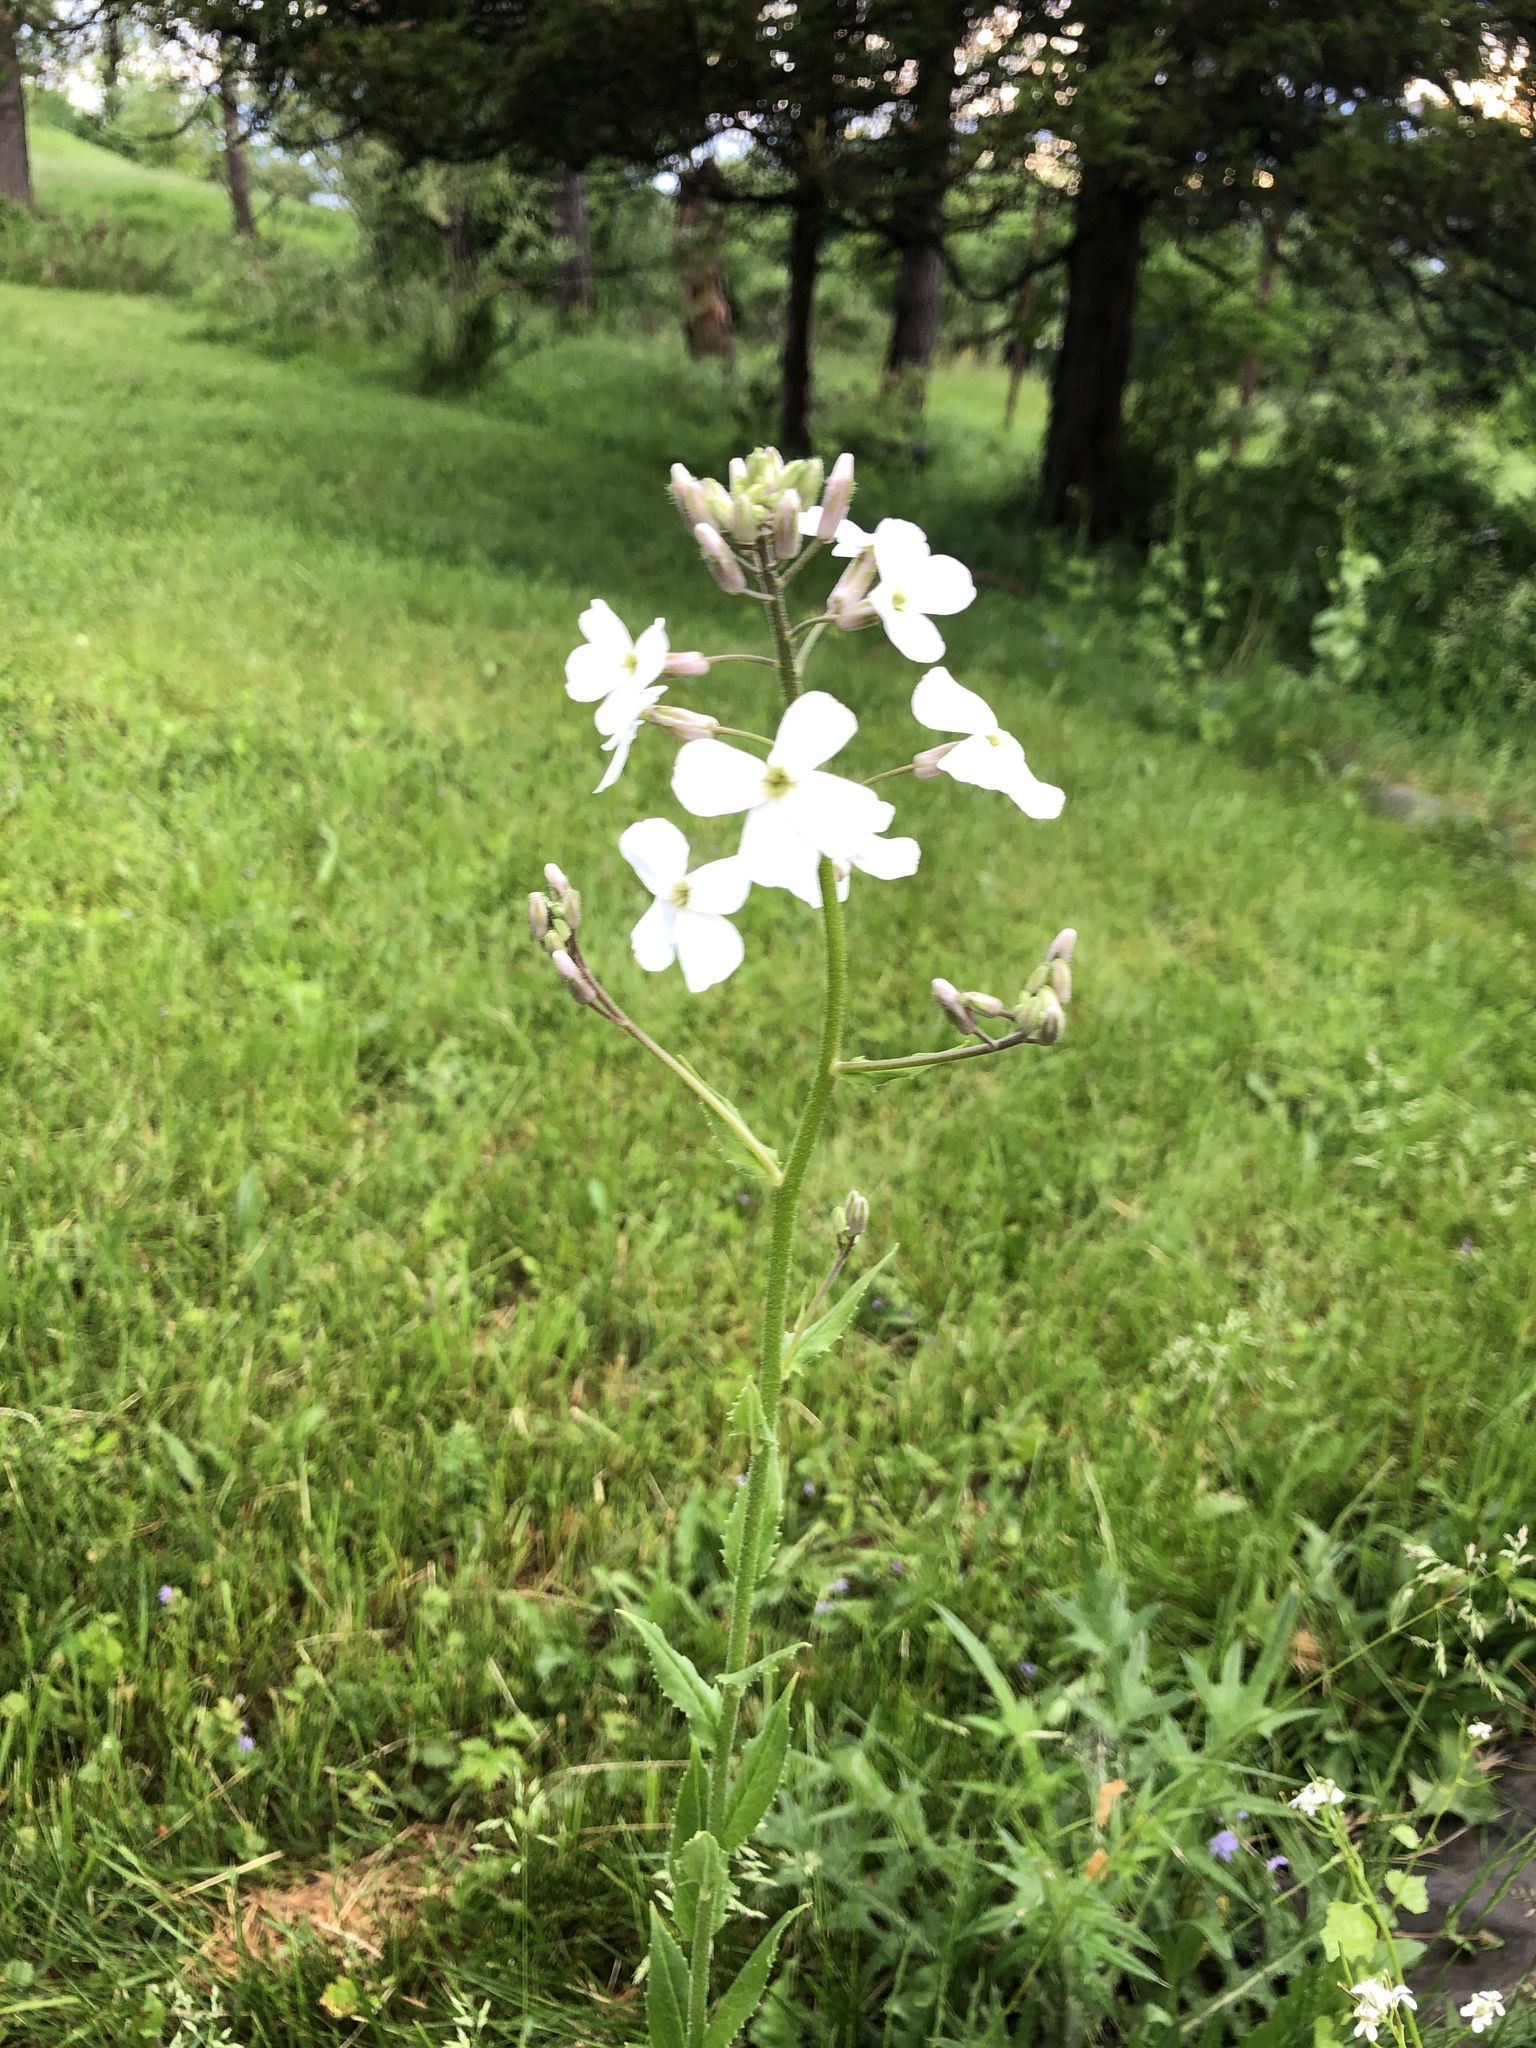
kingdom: Plantae
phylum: Tracheophyta
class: Magnoliopsida
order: Brassicales
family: Brassicaceae
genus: Hesperis
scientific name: Hesperis matronalis
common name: Dame's-violet
